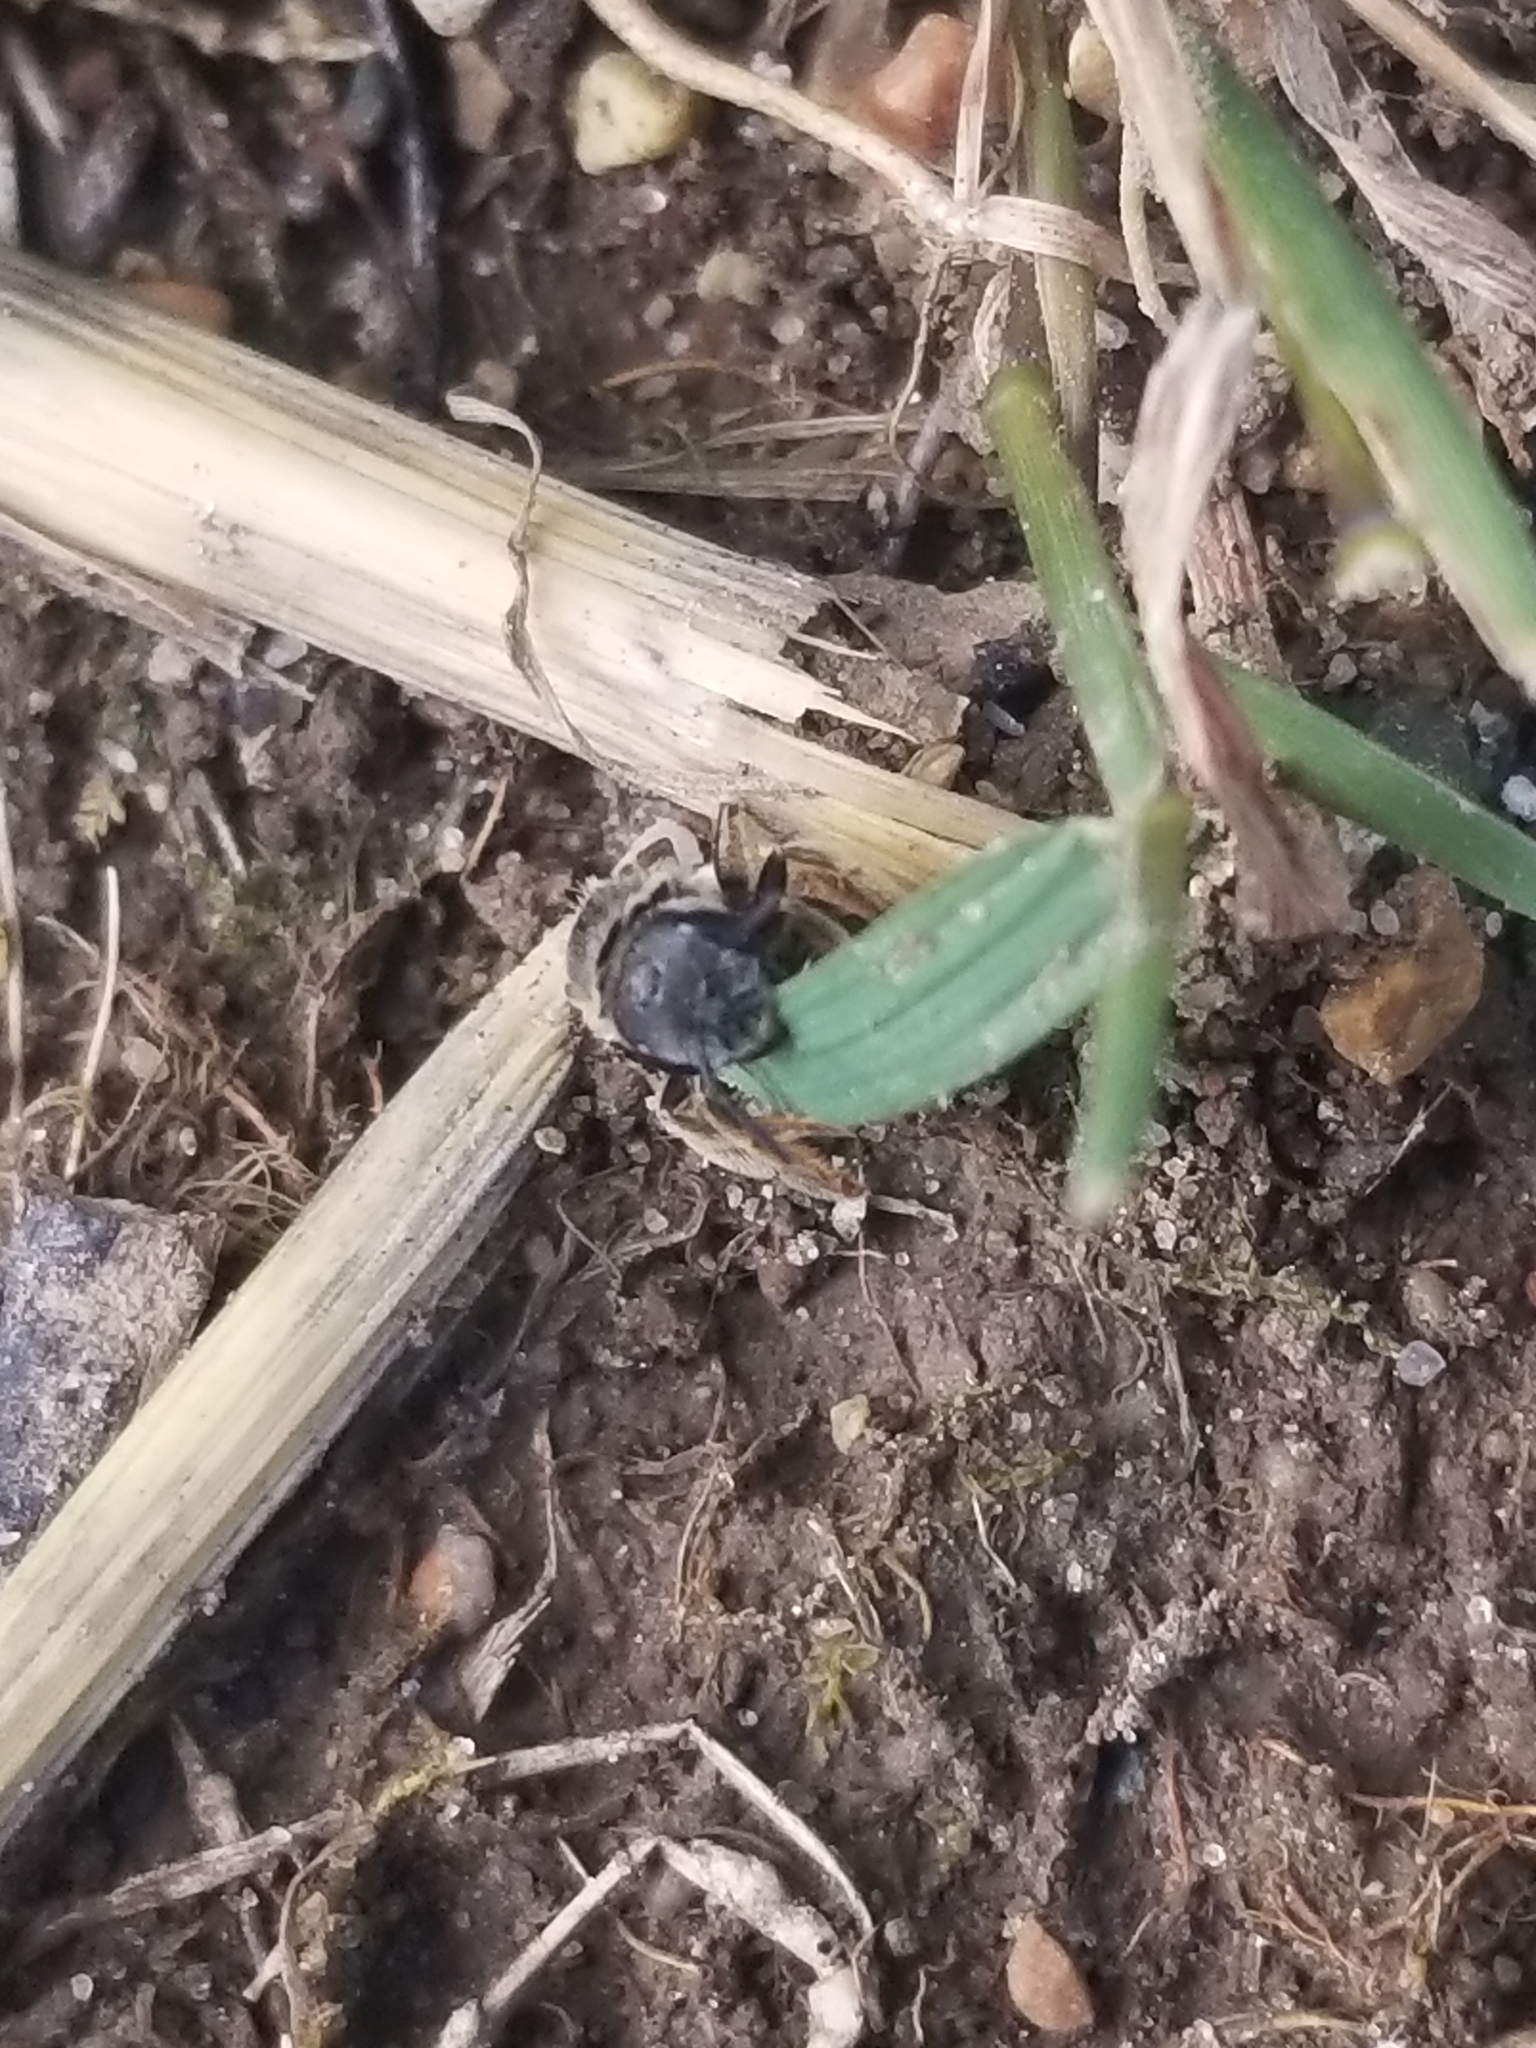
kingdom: Animalia
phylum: Arthropoda
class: Insecta
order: Hymenoptera
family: Halictidae
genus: Halictus
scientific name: Halictus ligatus
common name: Ligated furrow bee
